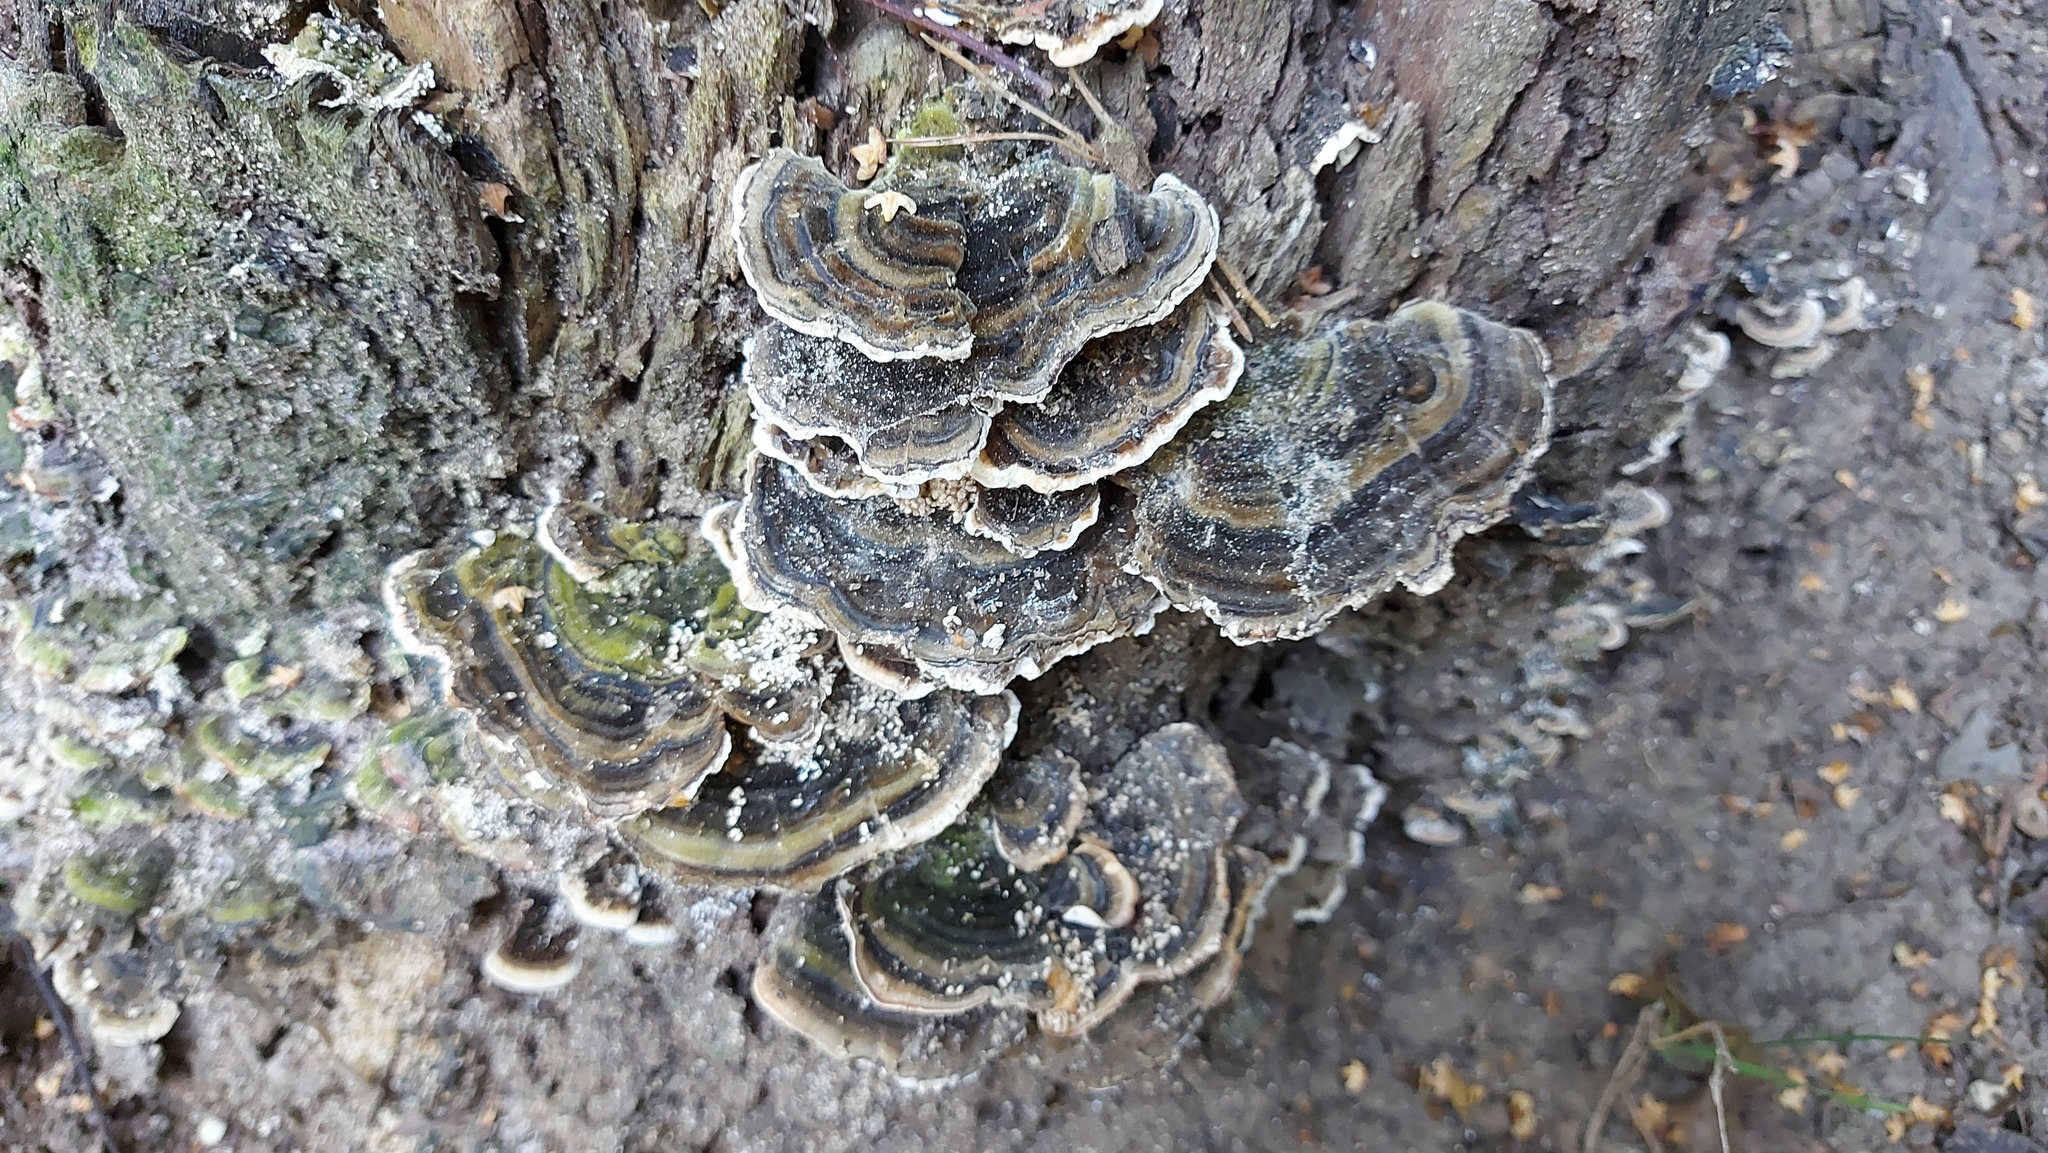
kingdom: Fungi
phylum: Basidiomycota
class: Agaricomycetes
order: Polyporales
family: Polyporaceae
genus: Trametes
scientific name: Trametes versicolor
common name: Turkeytail
